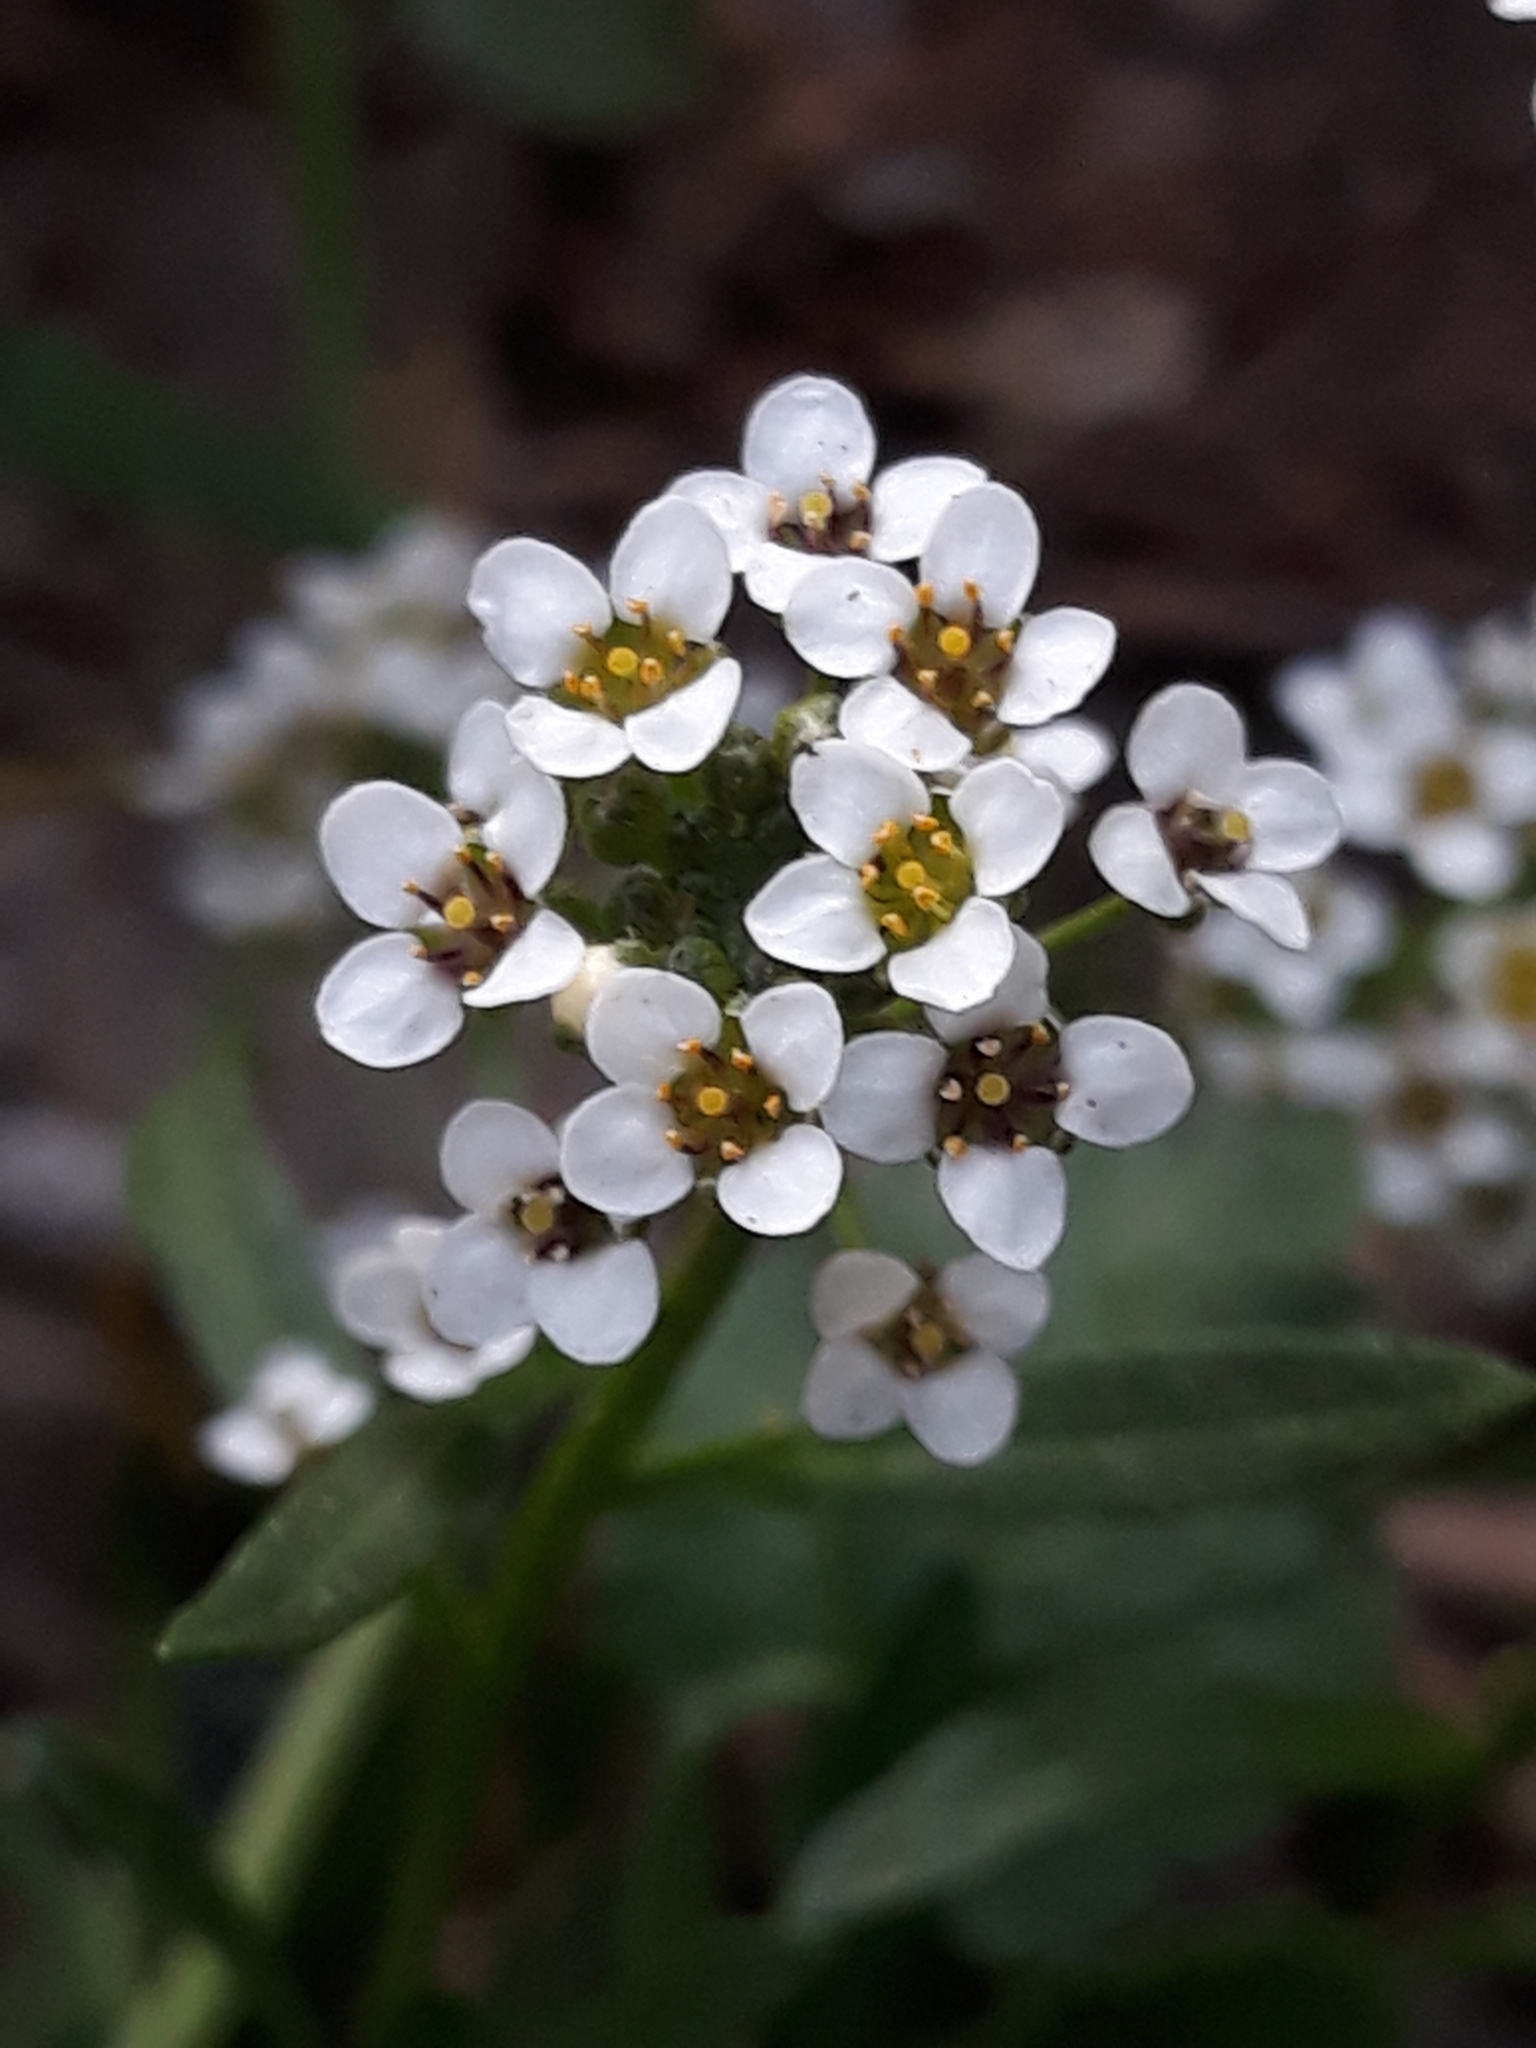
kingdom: Plantae
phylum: Tracheophyta
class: Magnoliopsida
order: Brassicales
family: Brassicaceae
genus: Lobularia
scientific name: Lobularia maritima
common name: Sweet alison
